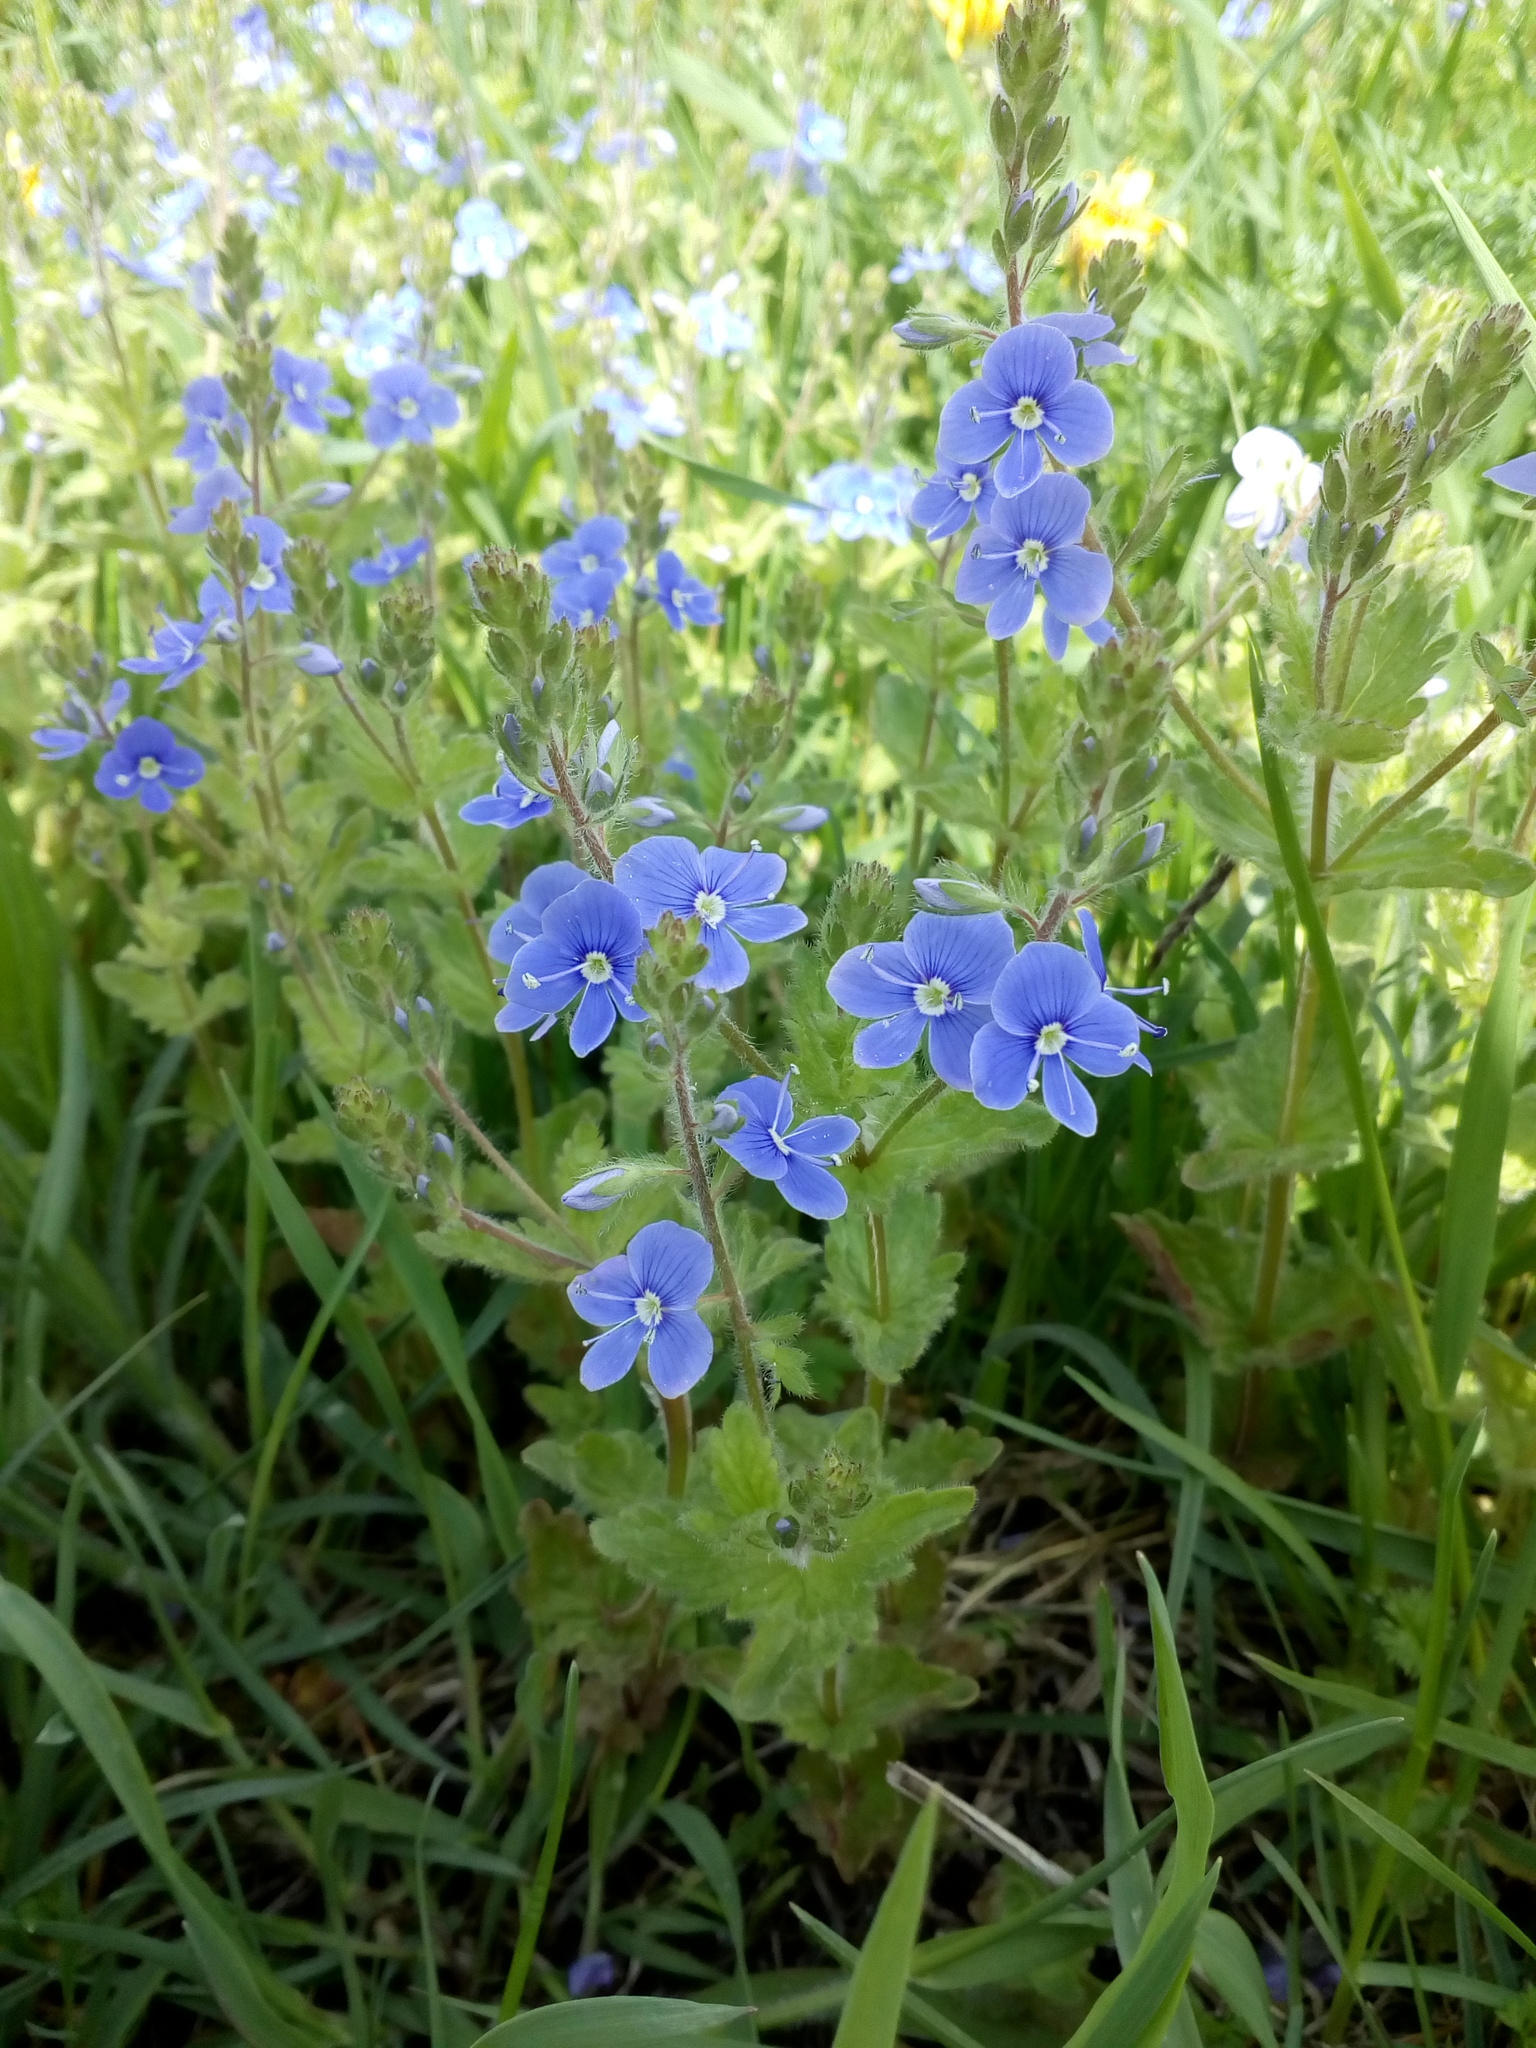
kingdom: Plantae
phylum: Tracheophyta
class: Magnoliopsida
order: Lamiales
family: Plantaginaceae
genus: Veronica
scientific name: Veronica chamaedrys
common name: Germander speedwell
